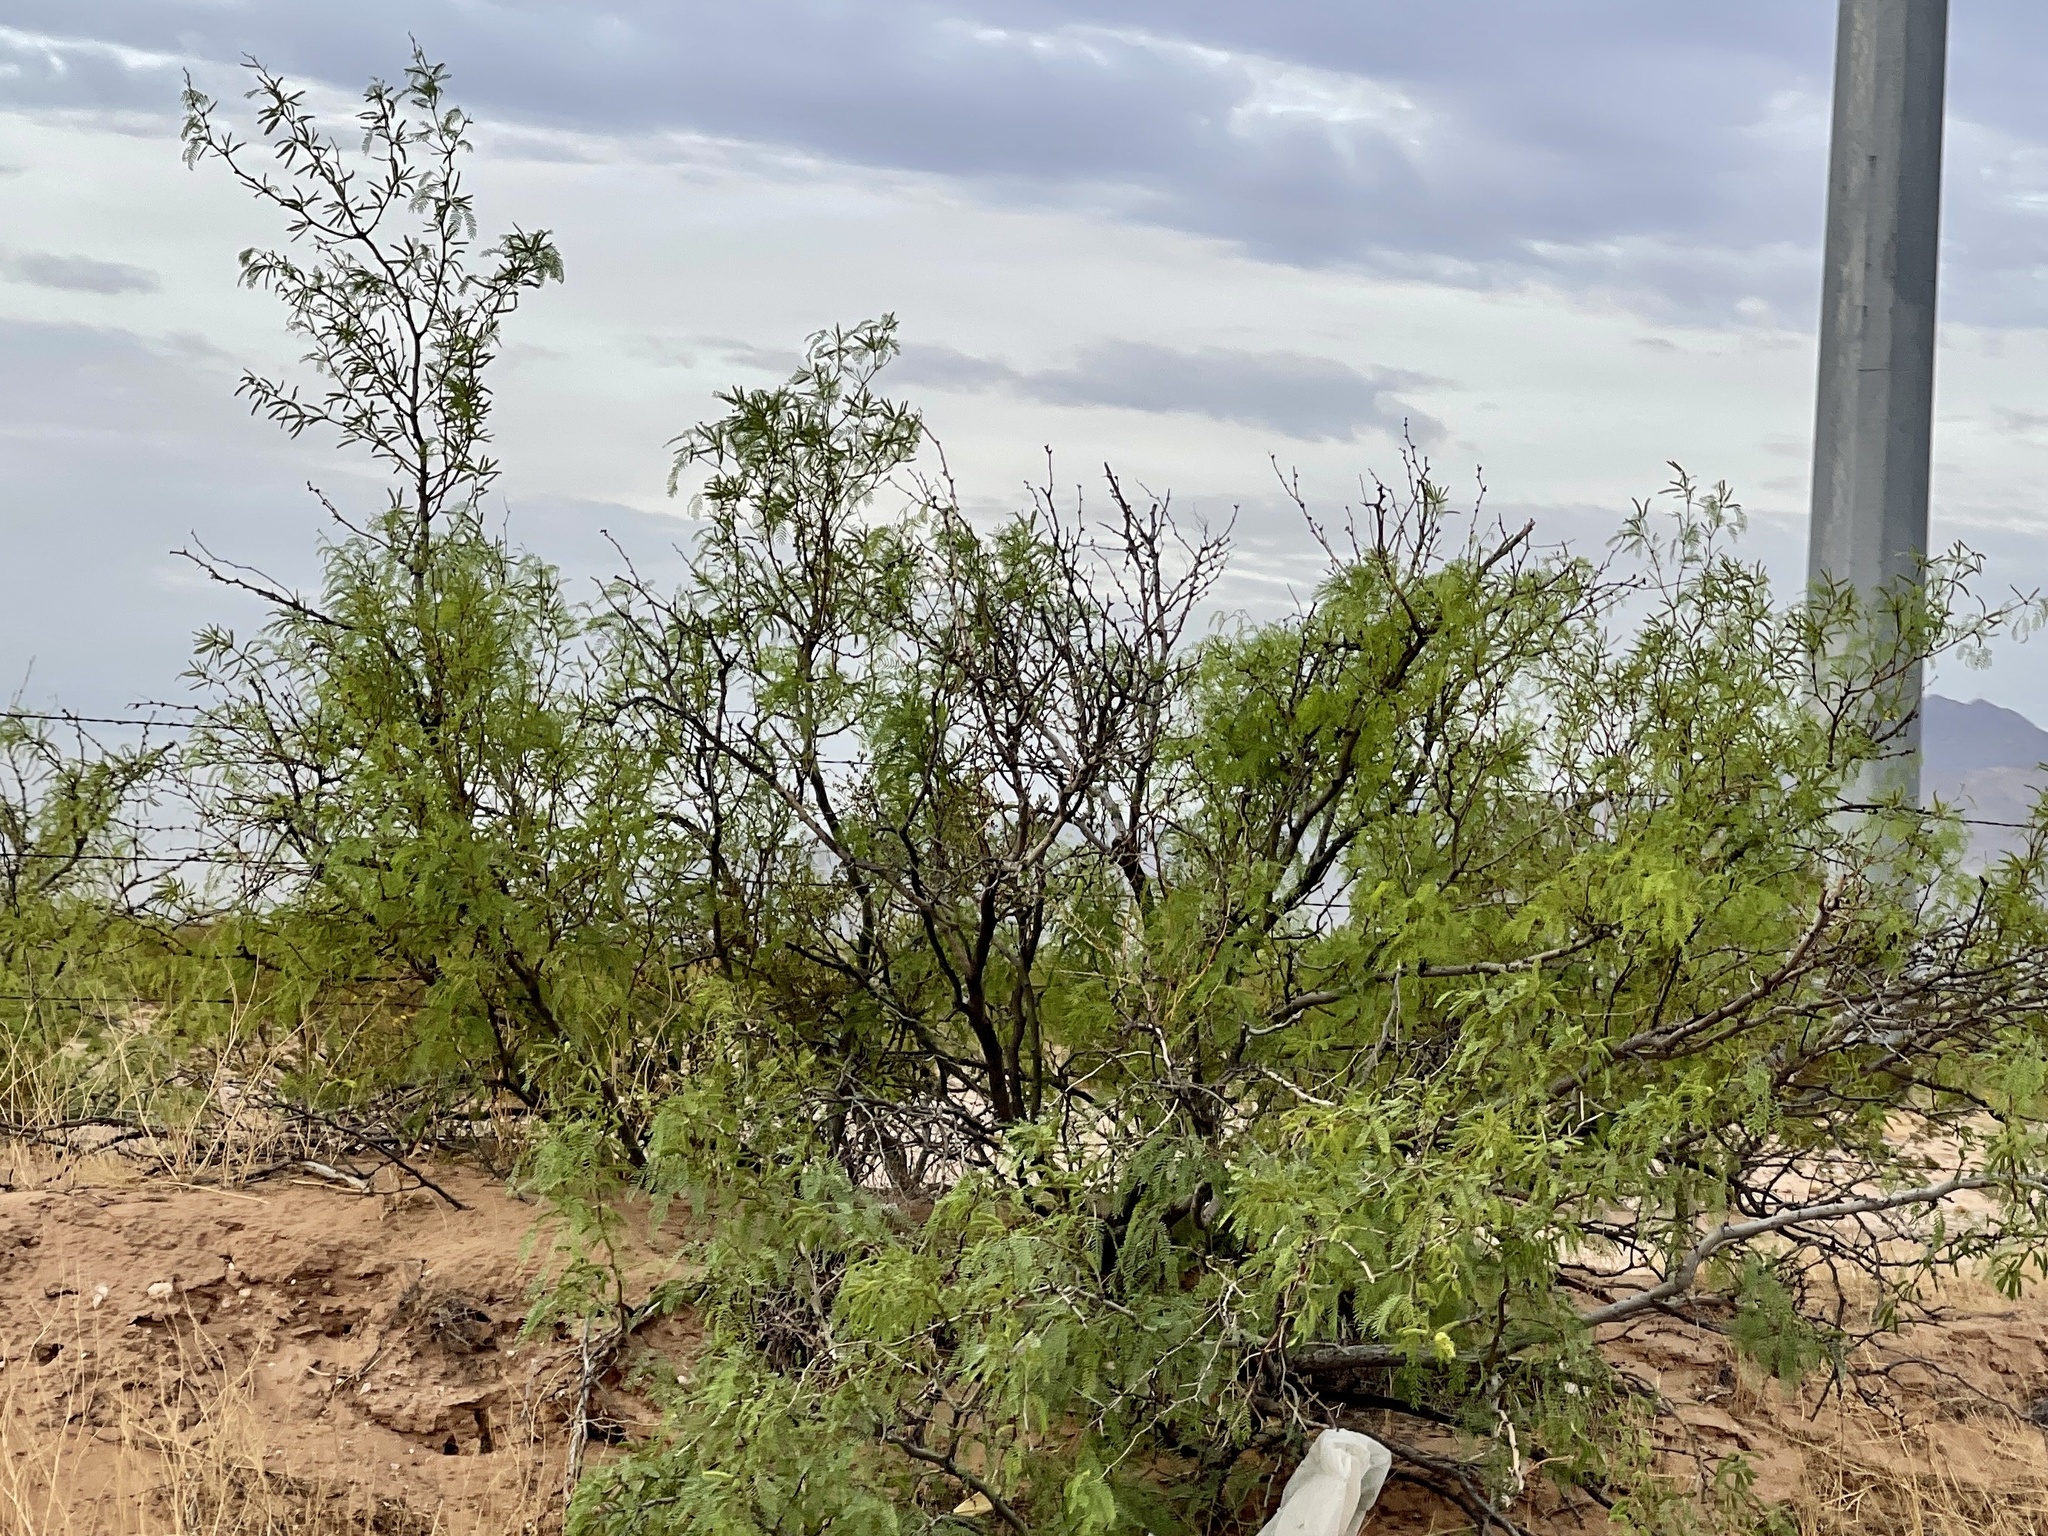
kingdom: Plantae
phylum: Tracheophyta
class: Magnoliopsida
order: Fabales
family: Fabaceae
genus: Prosopis
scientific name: Prosopis glandulosa
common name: Honey mesquite
